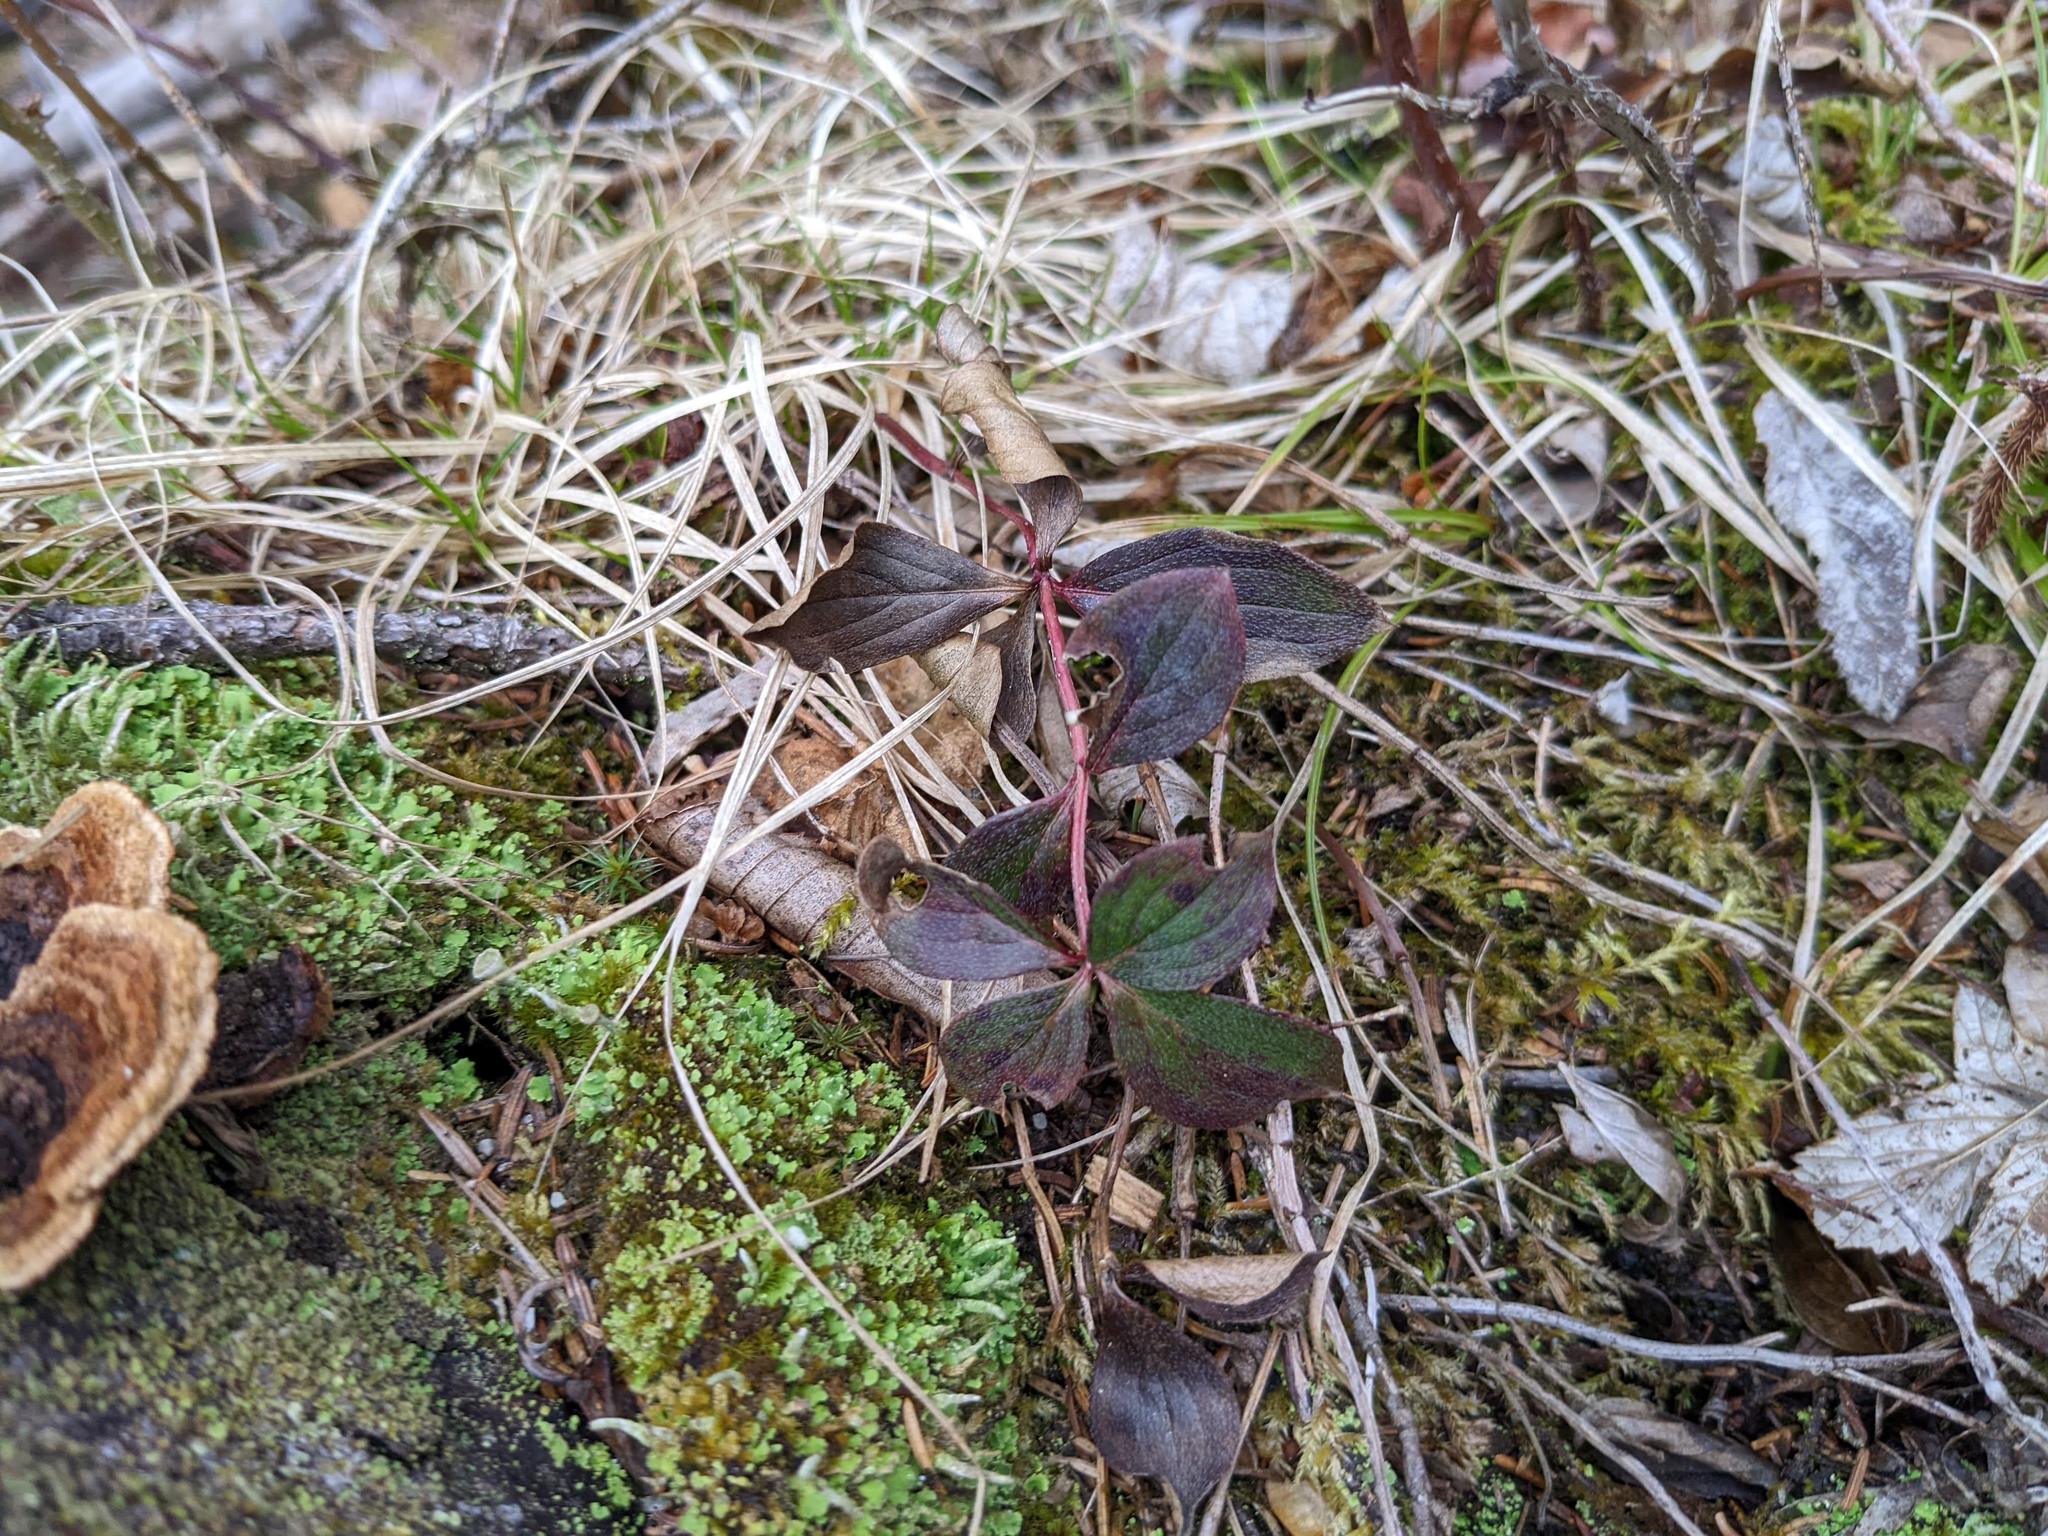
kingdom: Plantae
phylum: Tracheophyta
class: Magnoliopsida
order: Cornales
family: Cornaceae
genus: Cornus
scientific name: Cornus canadensis
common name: Creeping dogwood
